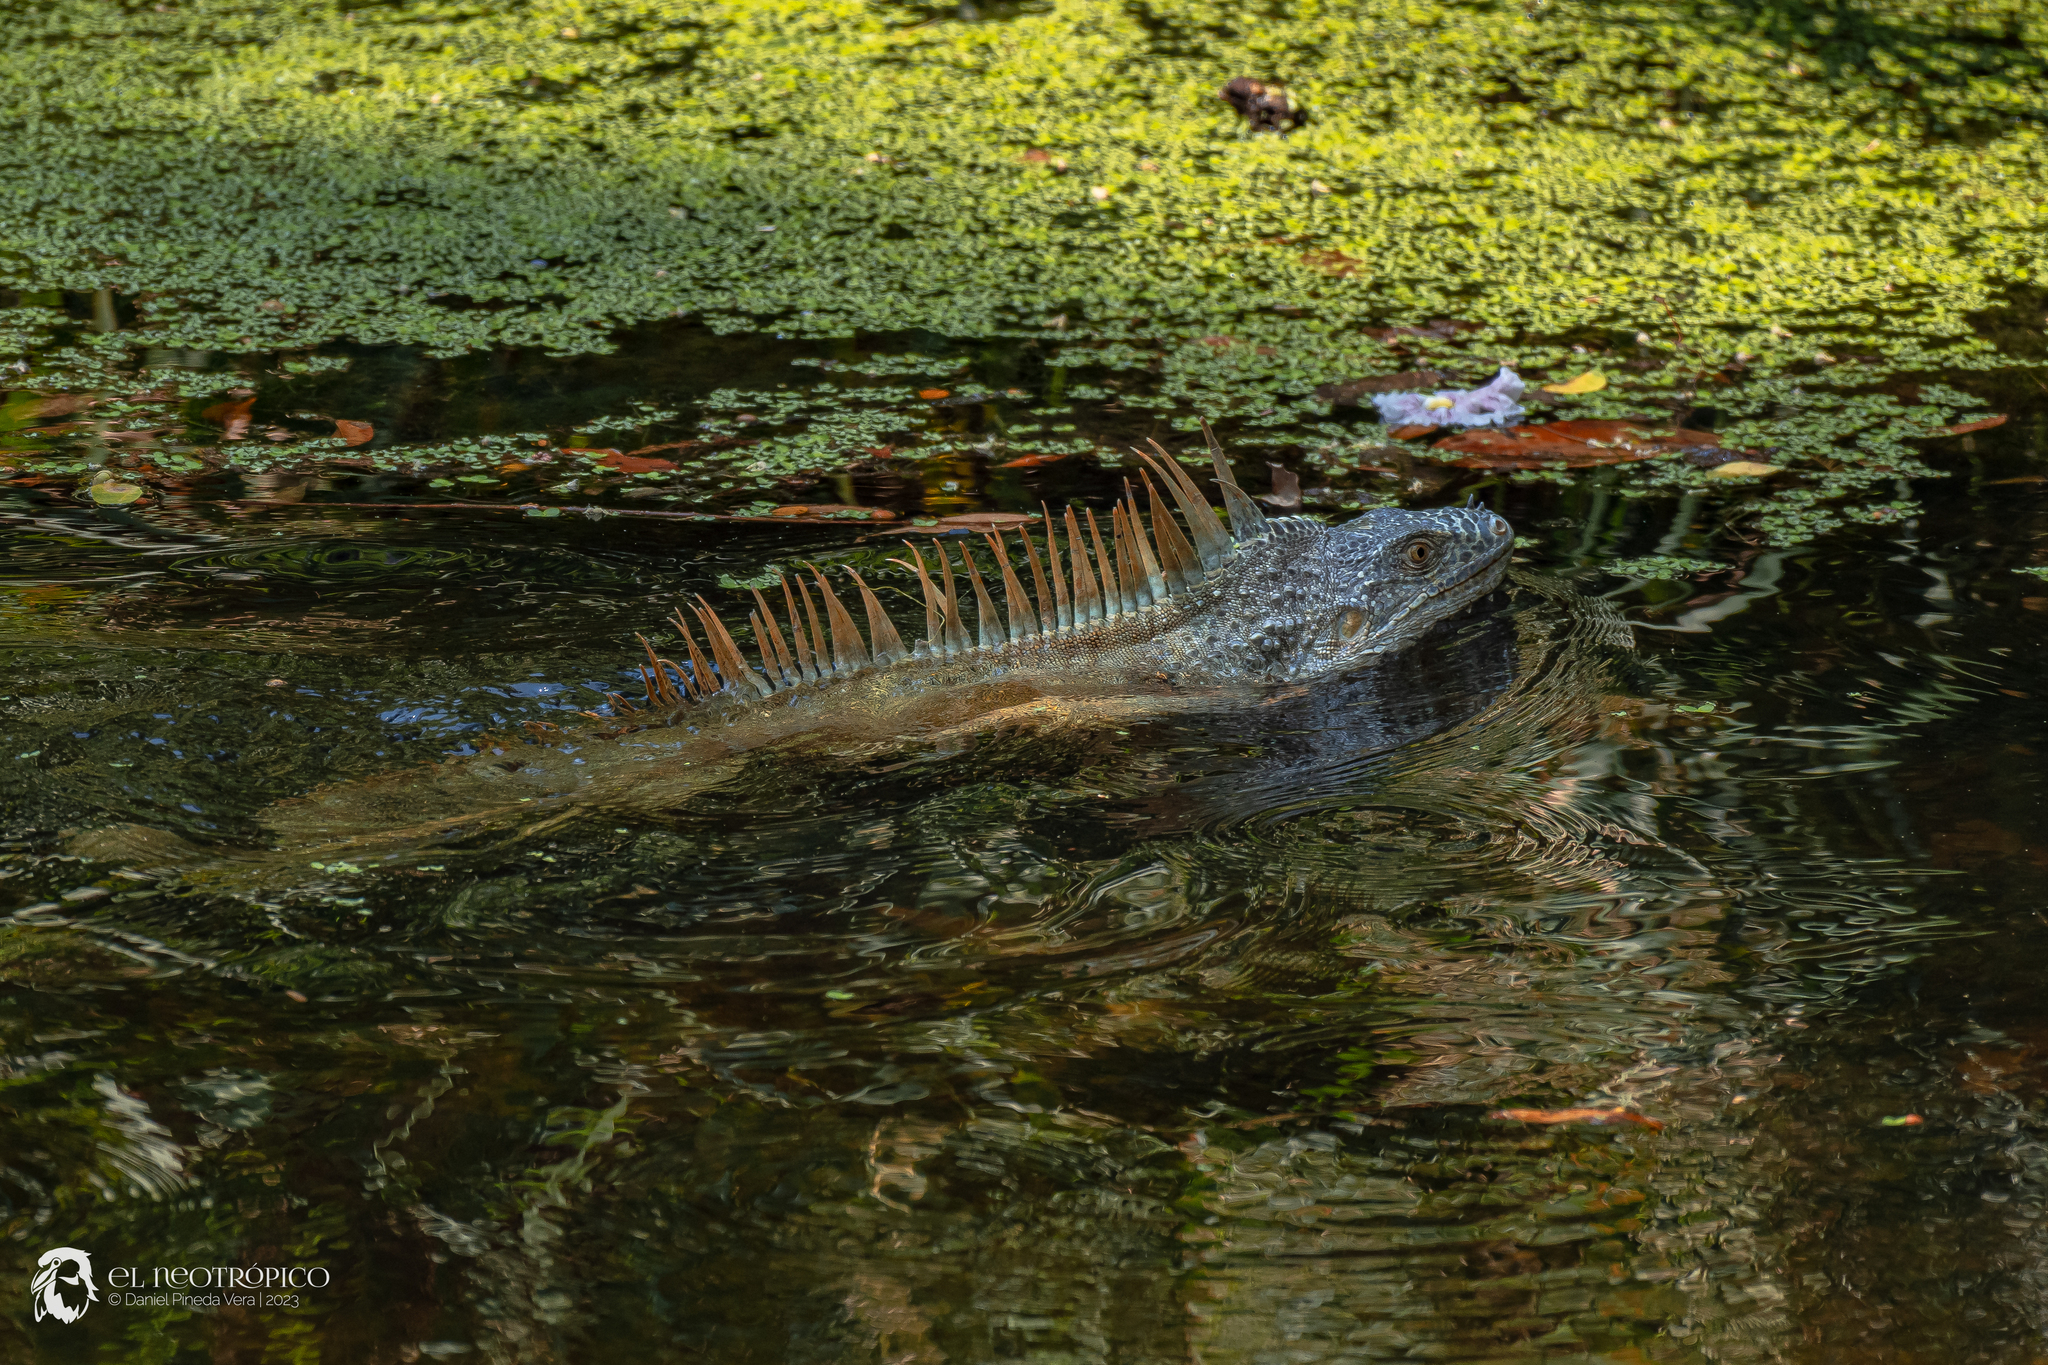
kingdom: Animalia
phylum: Chordata
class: Squamata
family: Iguanidae
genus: Iguana
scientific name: Iguana iguana
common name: Green iguana
